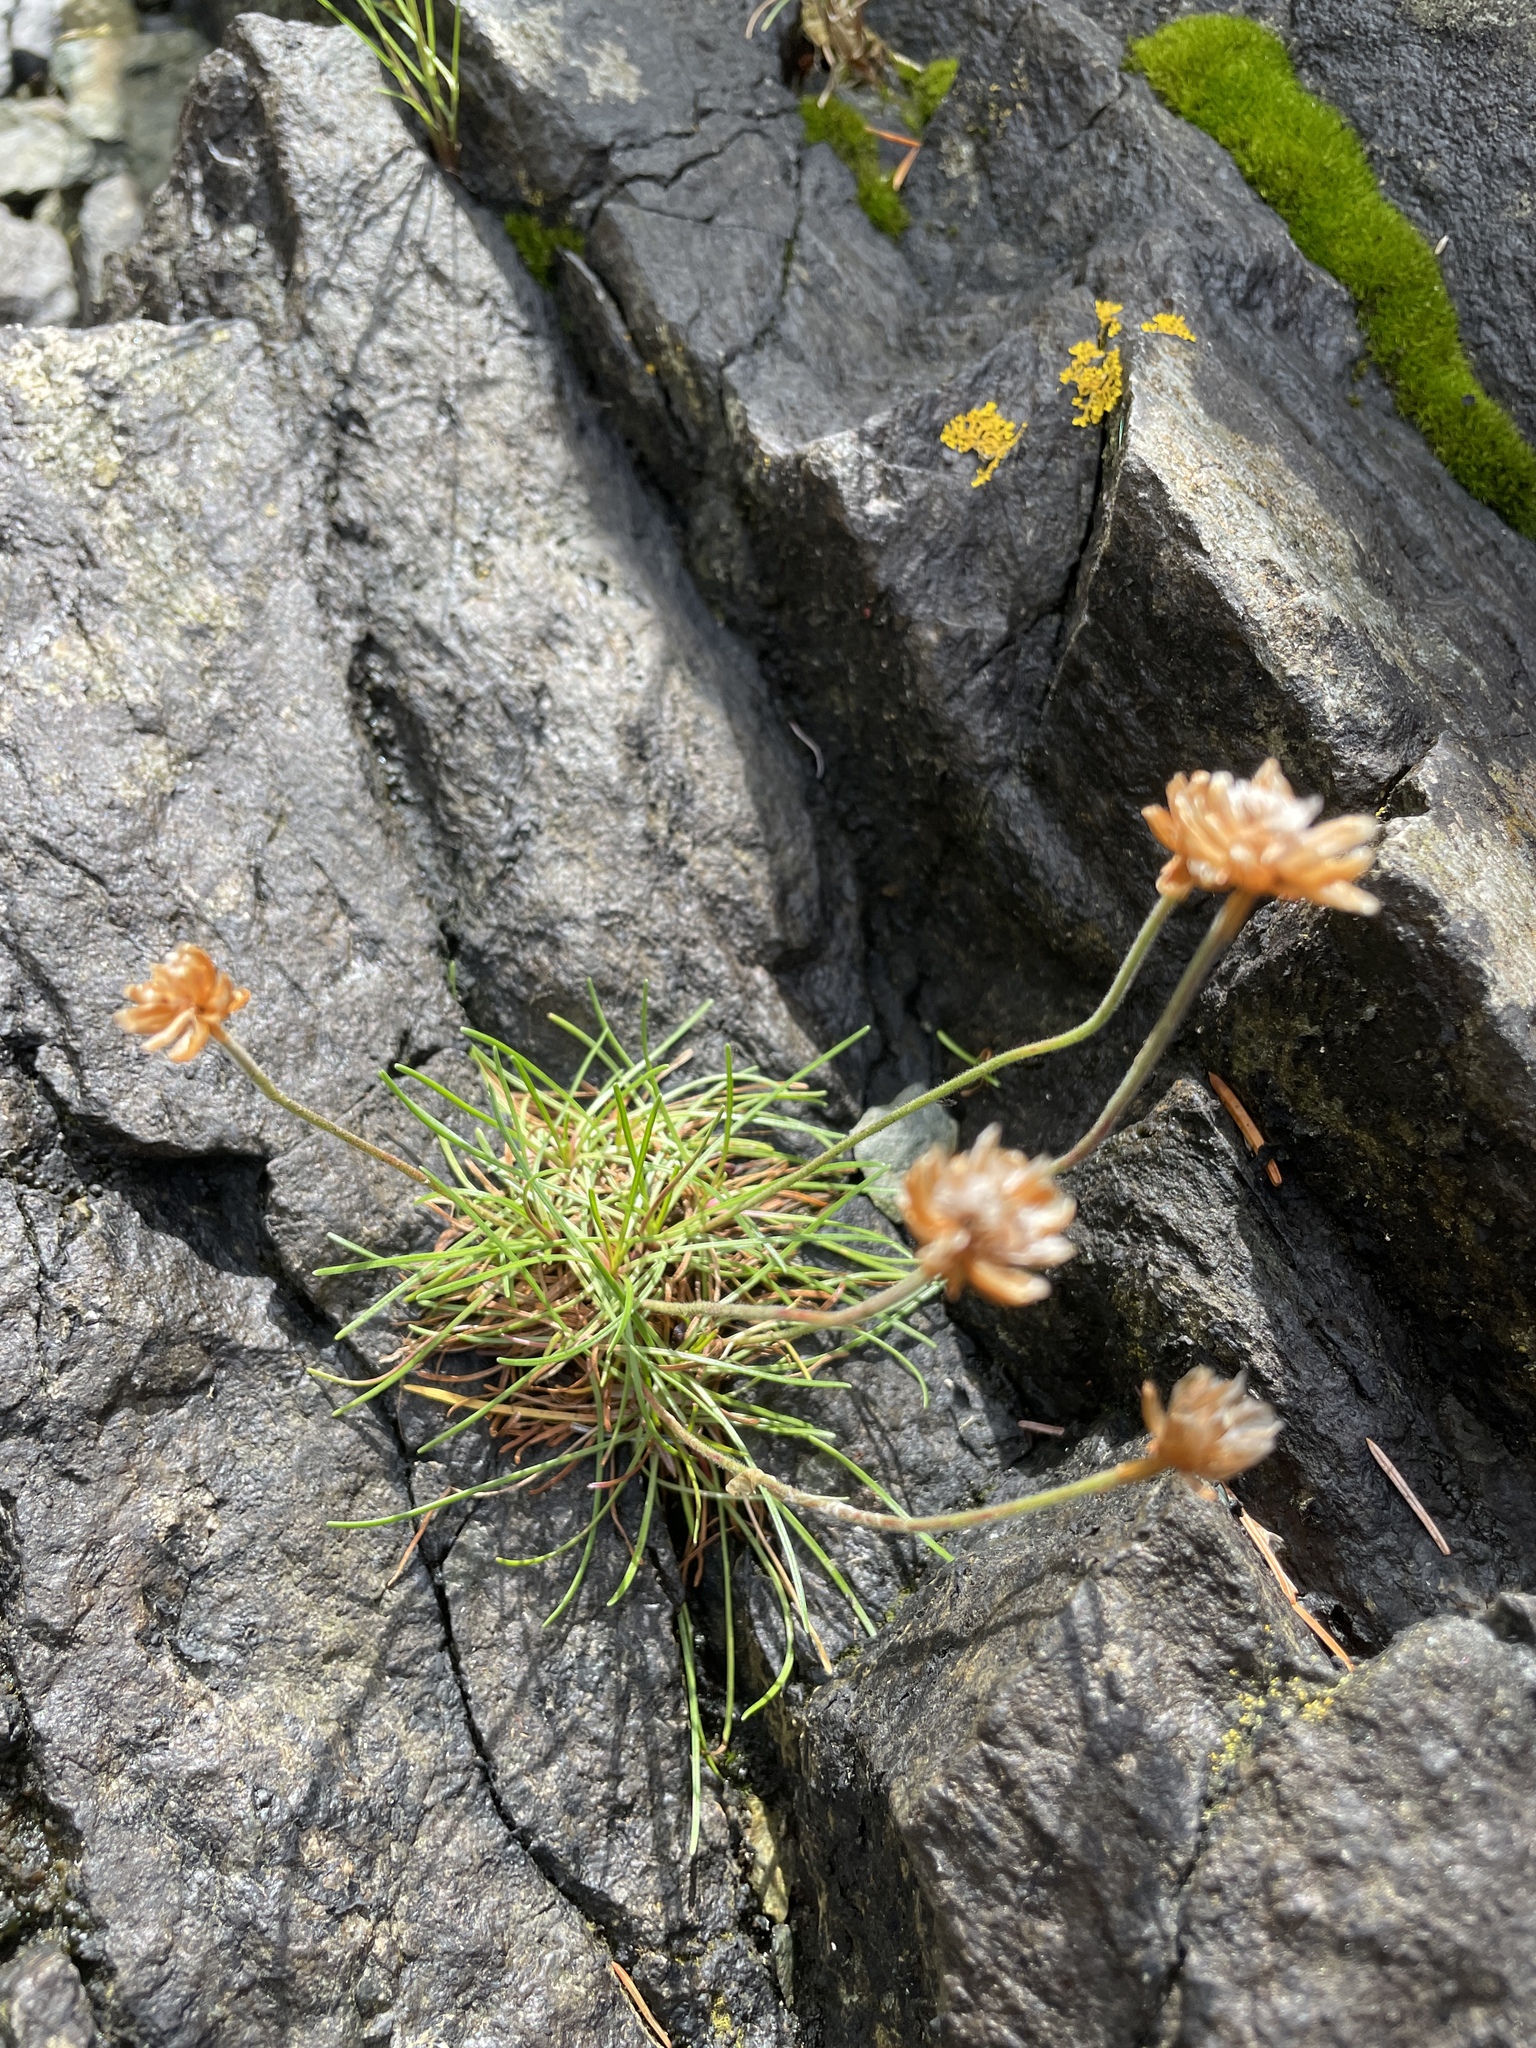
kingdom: Plantae
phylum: Tracheophyta
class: Magnoliopsida
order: Caryophyllales
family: Plumbaginaceae
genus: Armeria
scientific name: Armeria maritima
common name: Thrift
